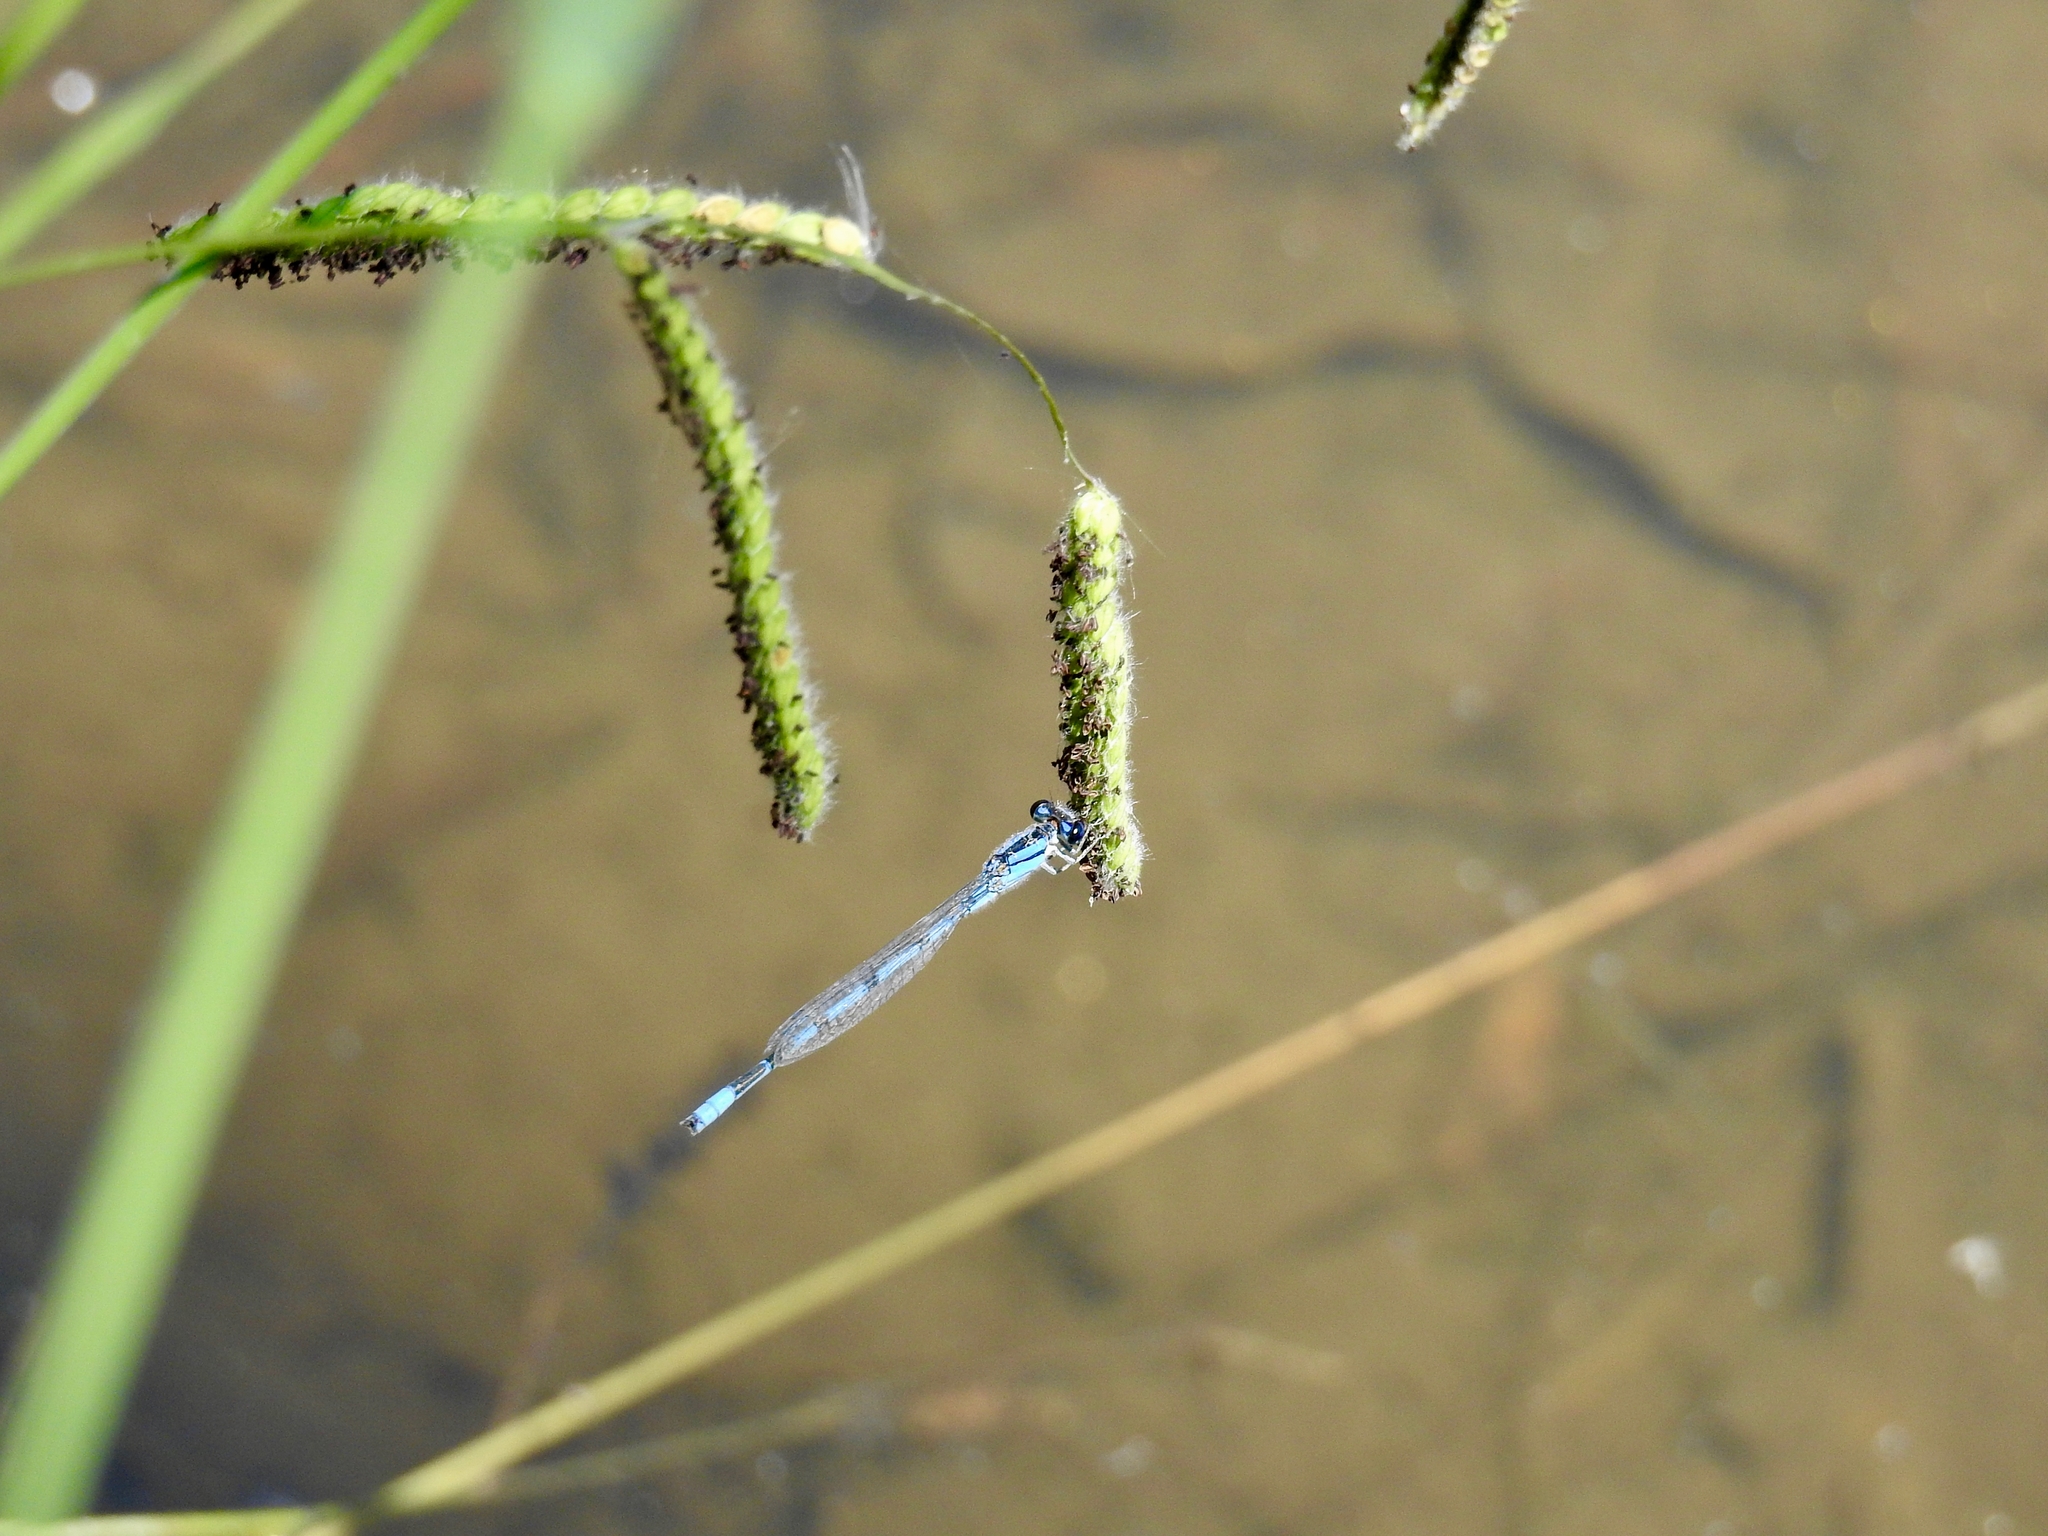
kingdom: Animalia
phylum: Arthropoda
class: Insecta
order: Odonata
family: Coenagrionidae
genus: Enallagma
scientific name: Enallagma civile
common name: Damselfly
